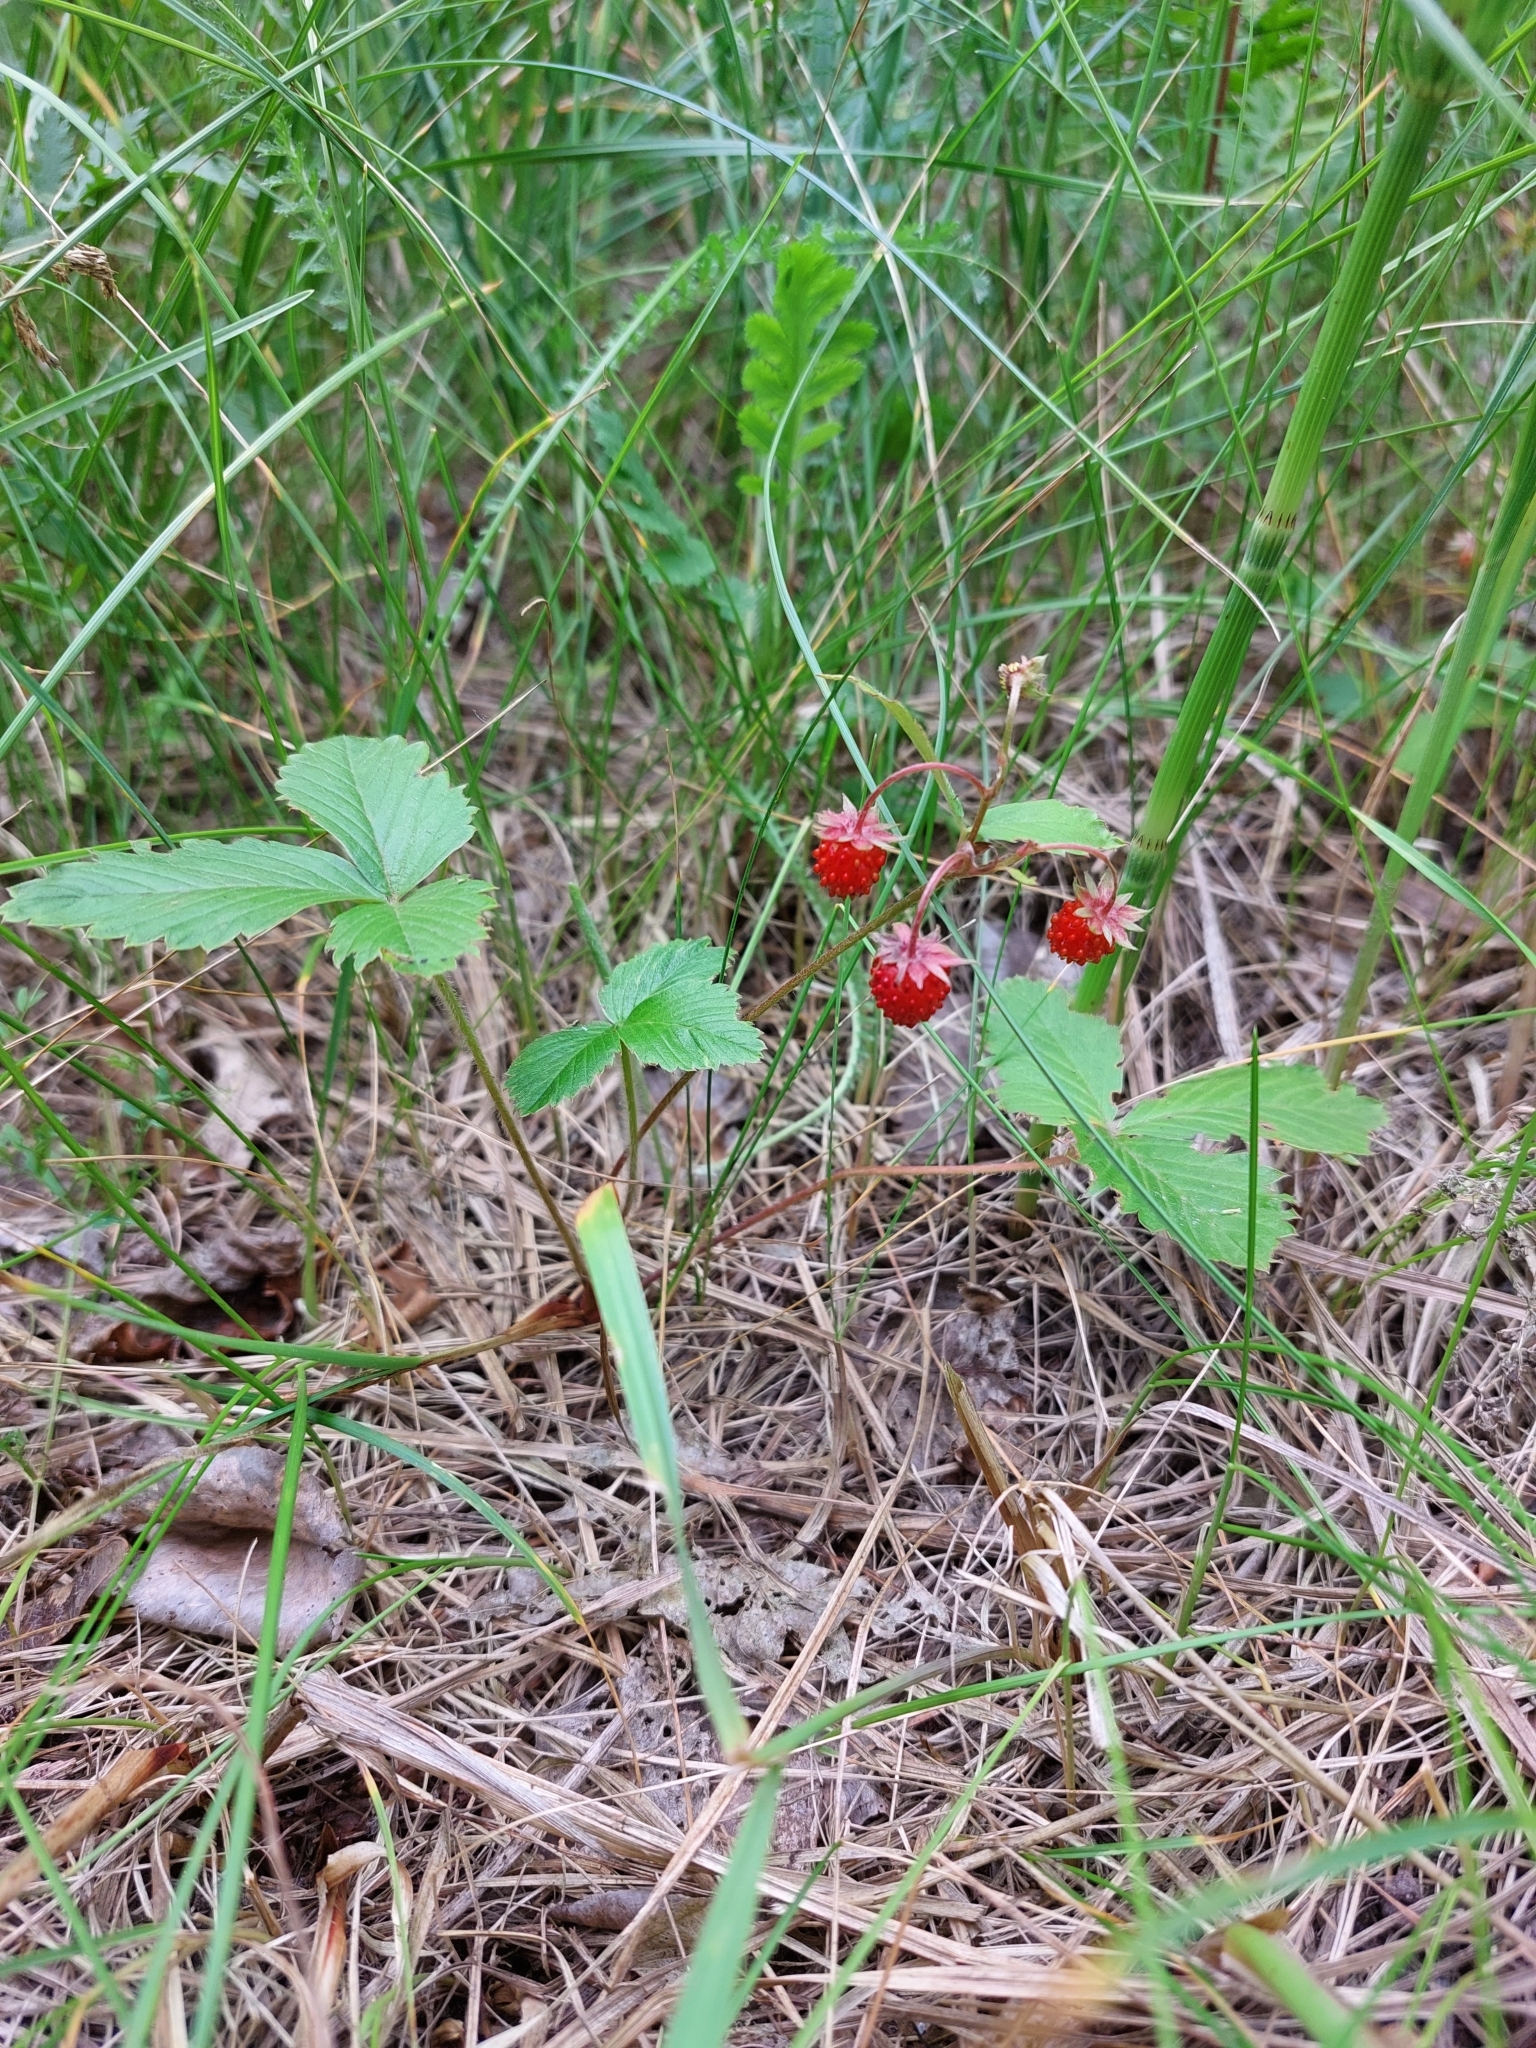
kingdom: Plantae
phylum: Tracheophyta
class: Magnoliopsida
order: Rosales
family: Rosaceae
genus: Fragaria
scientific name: Fragaria vesca
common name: Wild strawberry
